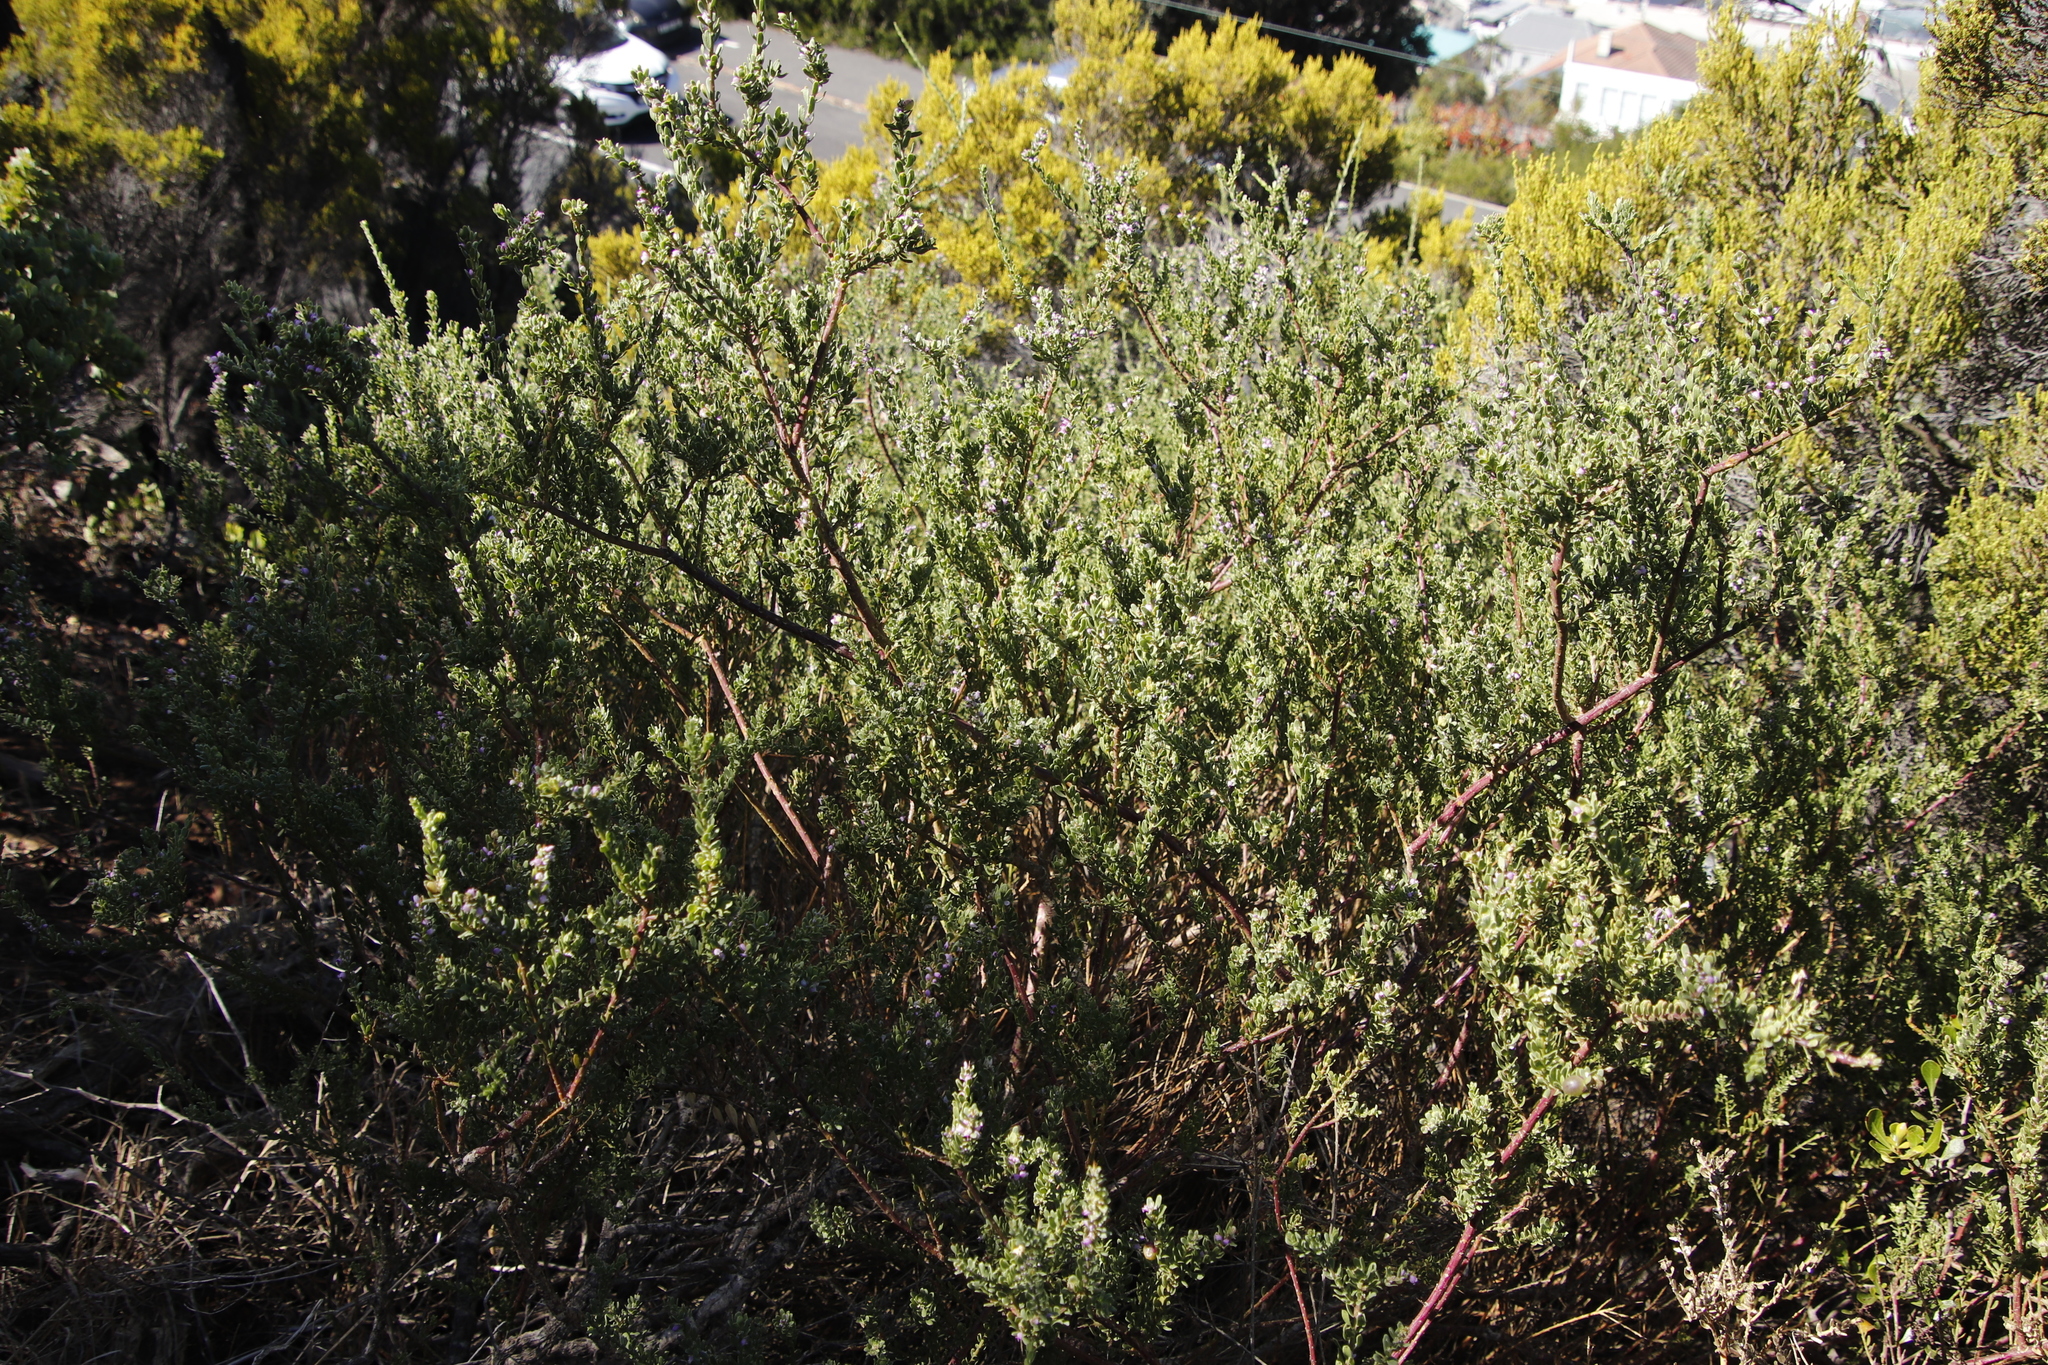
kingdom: Plantae
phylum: Tracheophyta
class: Magnoliopsida
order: Fabales
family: Polygalaceae
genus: Muraltia
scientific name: Muraltia spinosa
